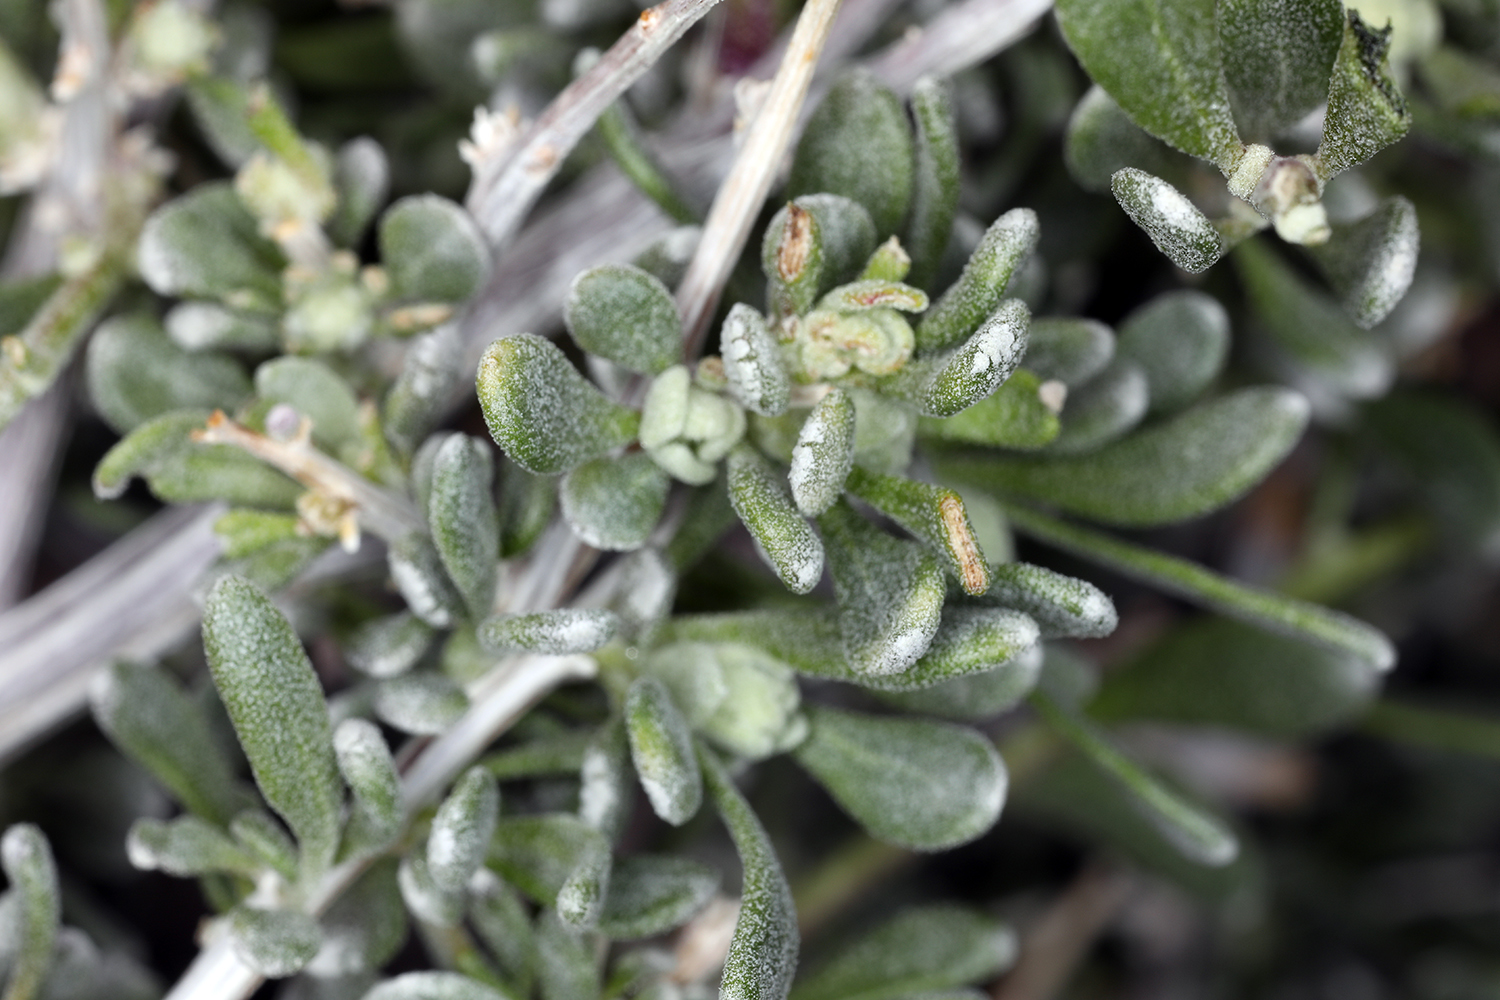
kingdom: Plantae
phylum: Tracheophyta
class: Magnoliopsida
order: Caryophyllales
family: Amaranthaceae
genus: Grayia
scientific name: Grayia spinosa
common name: Spiny hopsage
